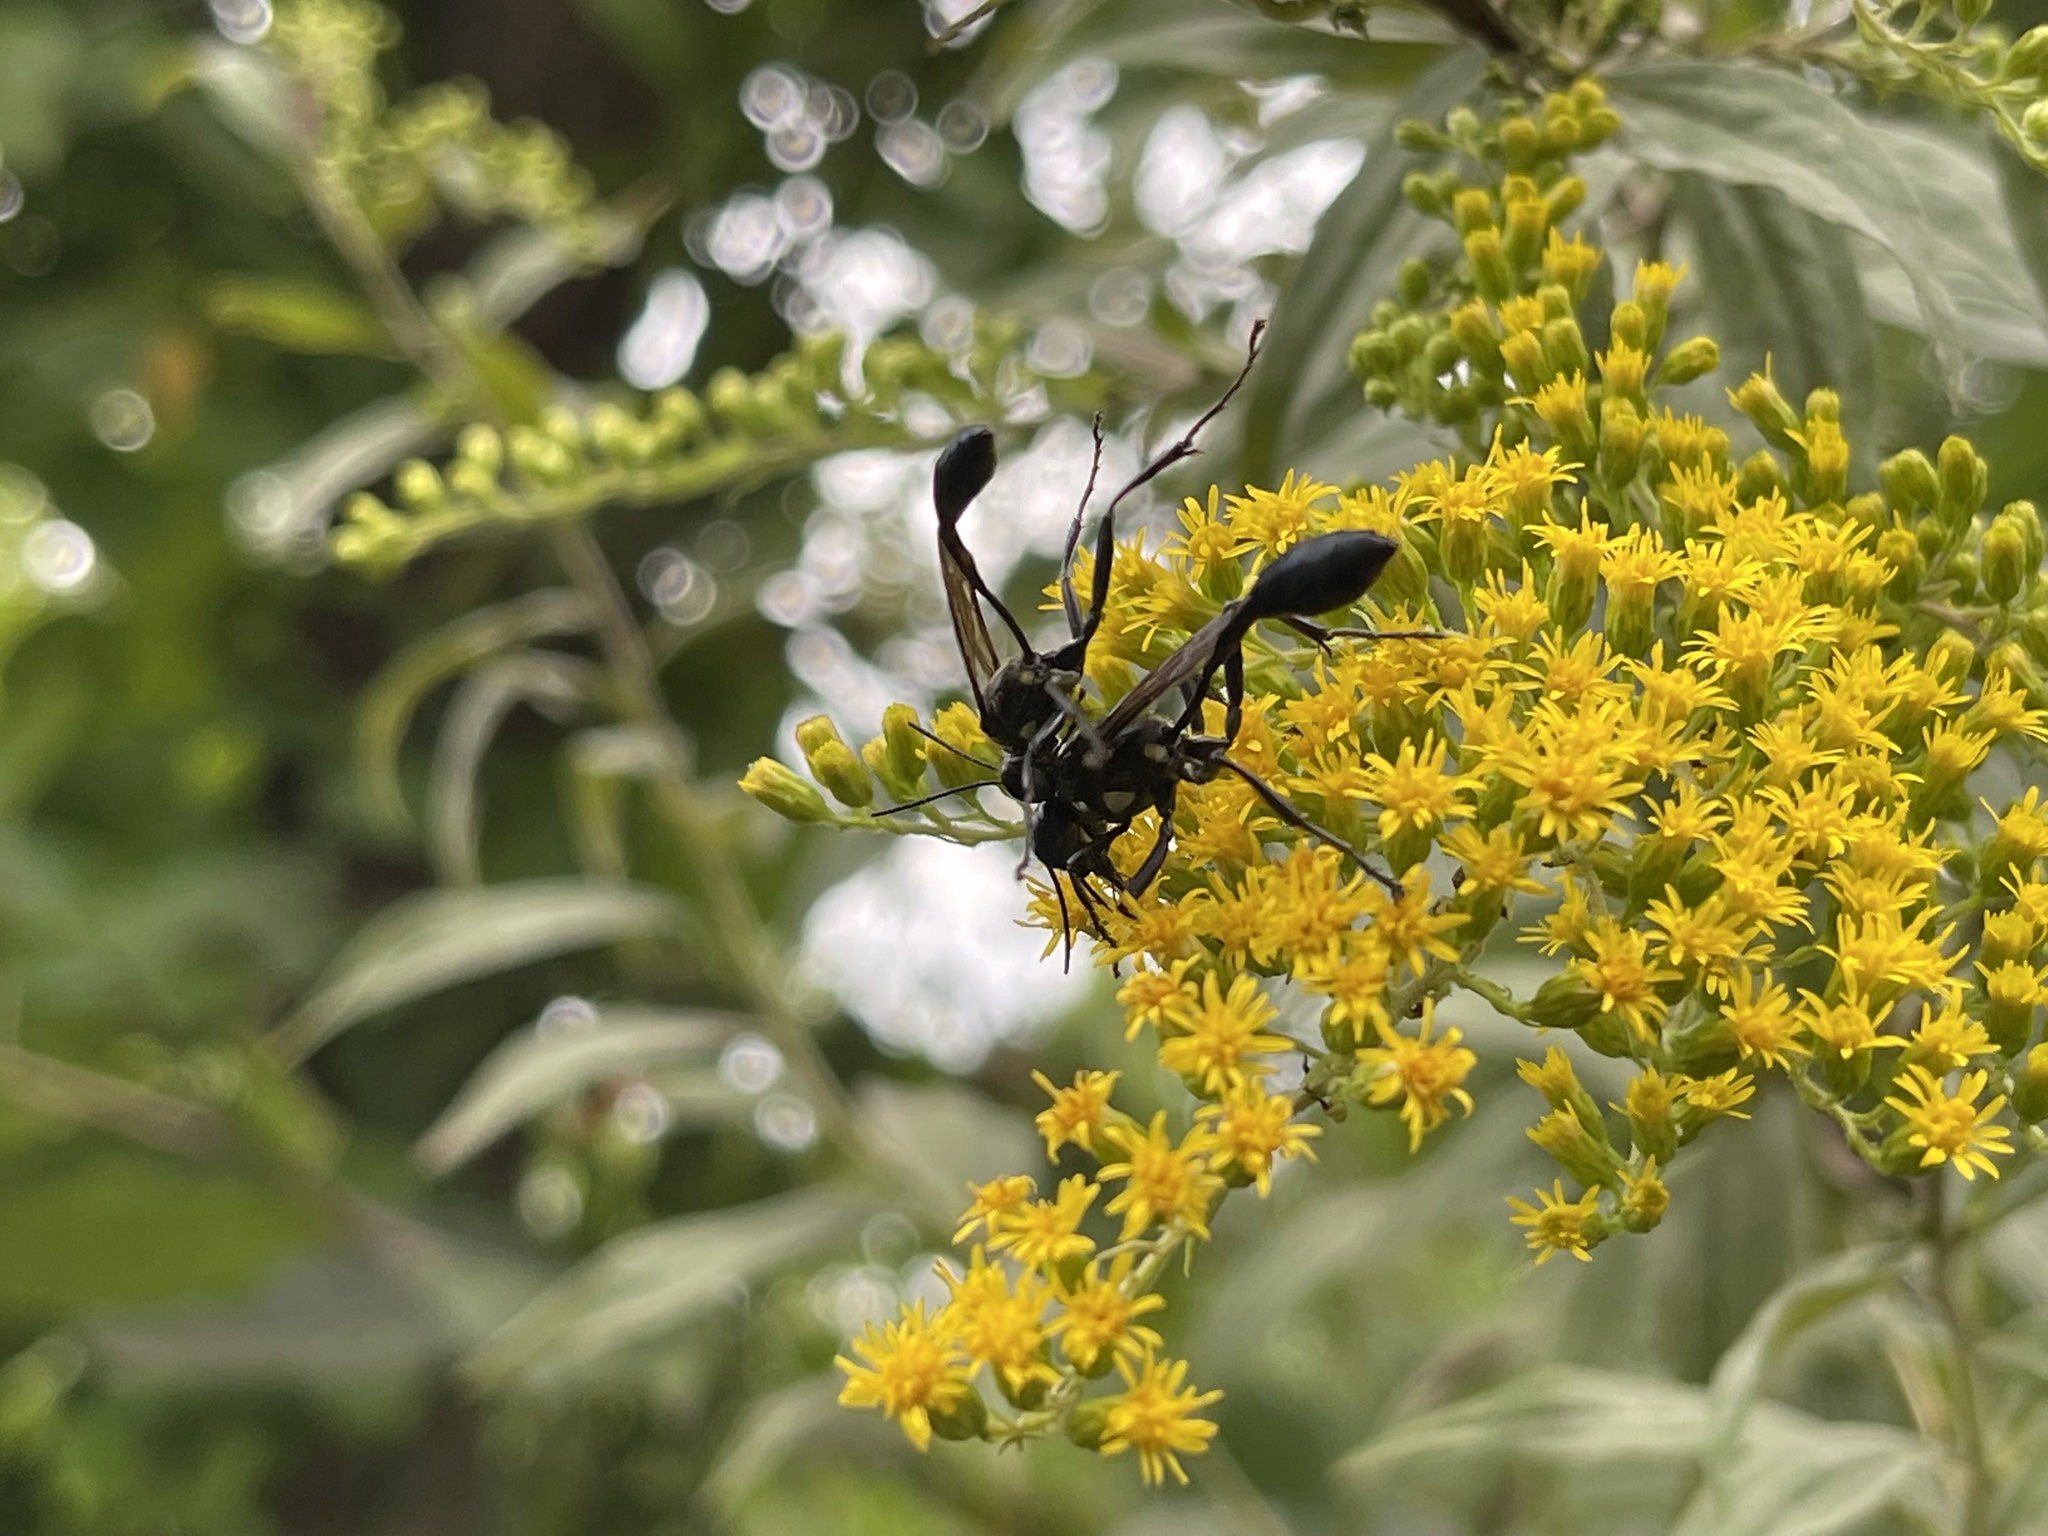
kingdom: Animalia
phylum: Arthropoda
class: Insecta
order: Hymenoptera
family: Sphecidae
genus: Eremnophila
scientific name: Eremnophila aureonotata
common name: Gold-marked thread-waisted wasp
